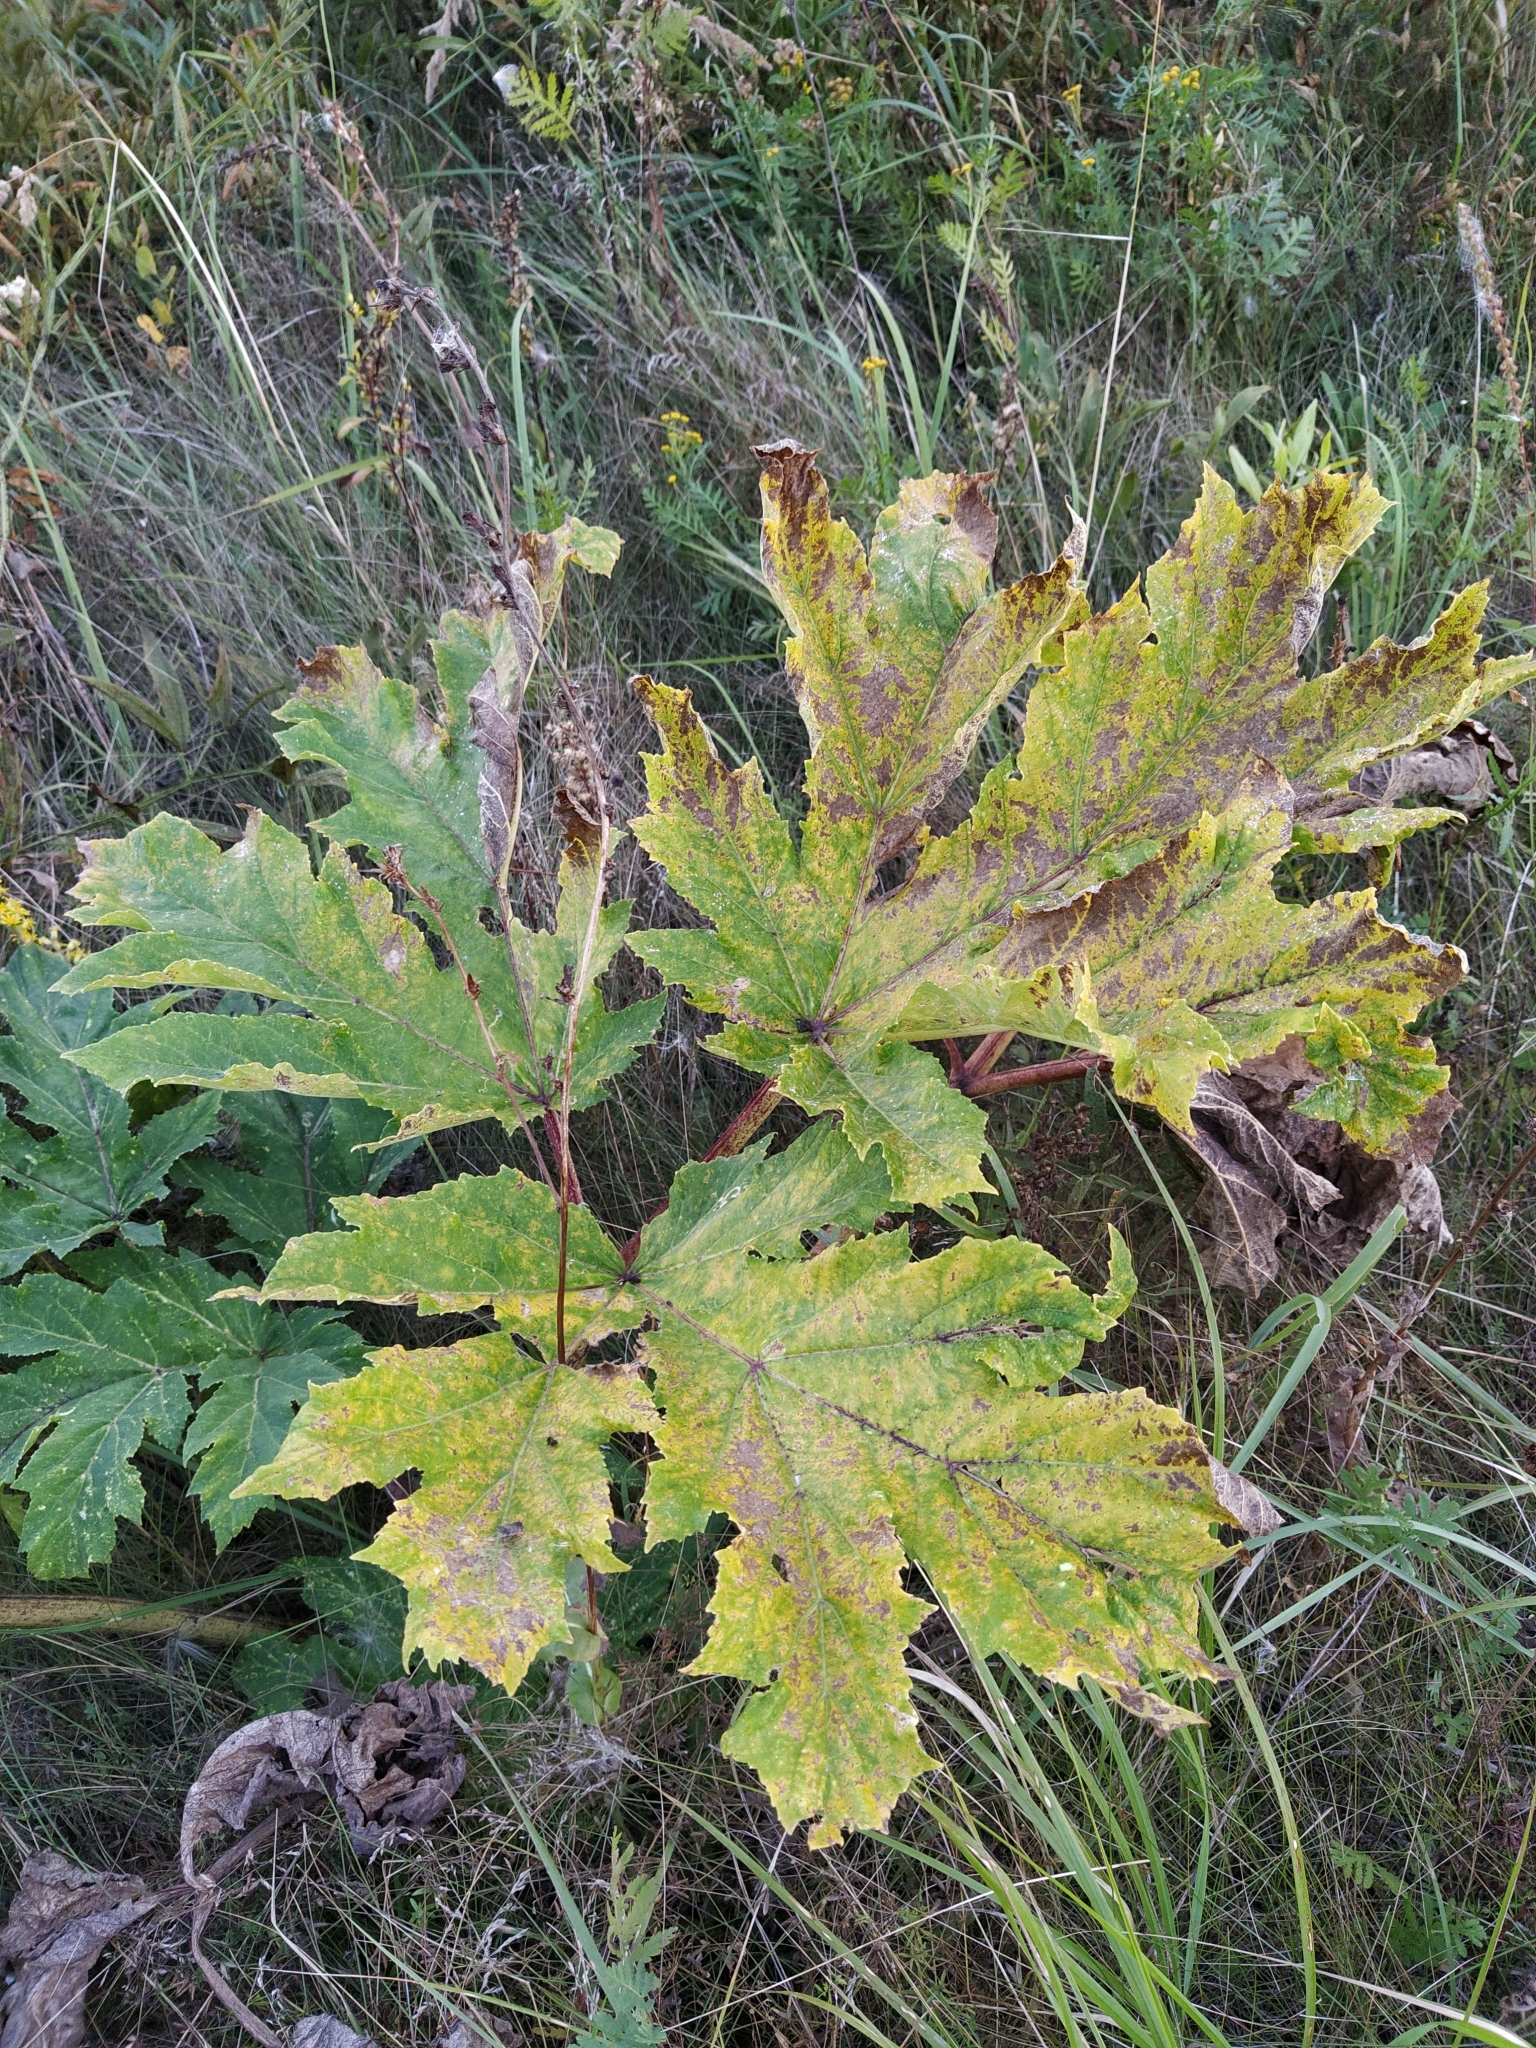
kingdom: Plantae
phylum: Tracheophyta
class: Magnoliopsida
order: Apiales
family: Apiaceae
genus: Heracleum
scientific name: Heracleum sosnowskyi
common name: Sosnowsky's hogweed
